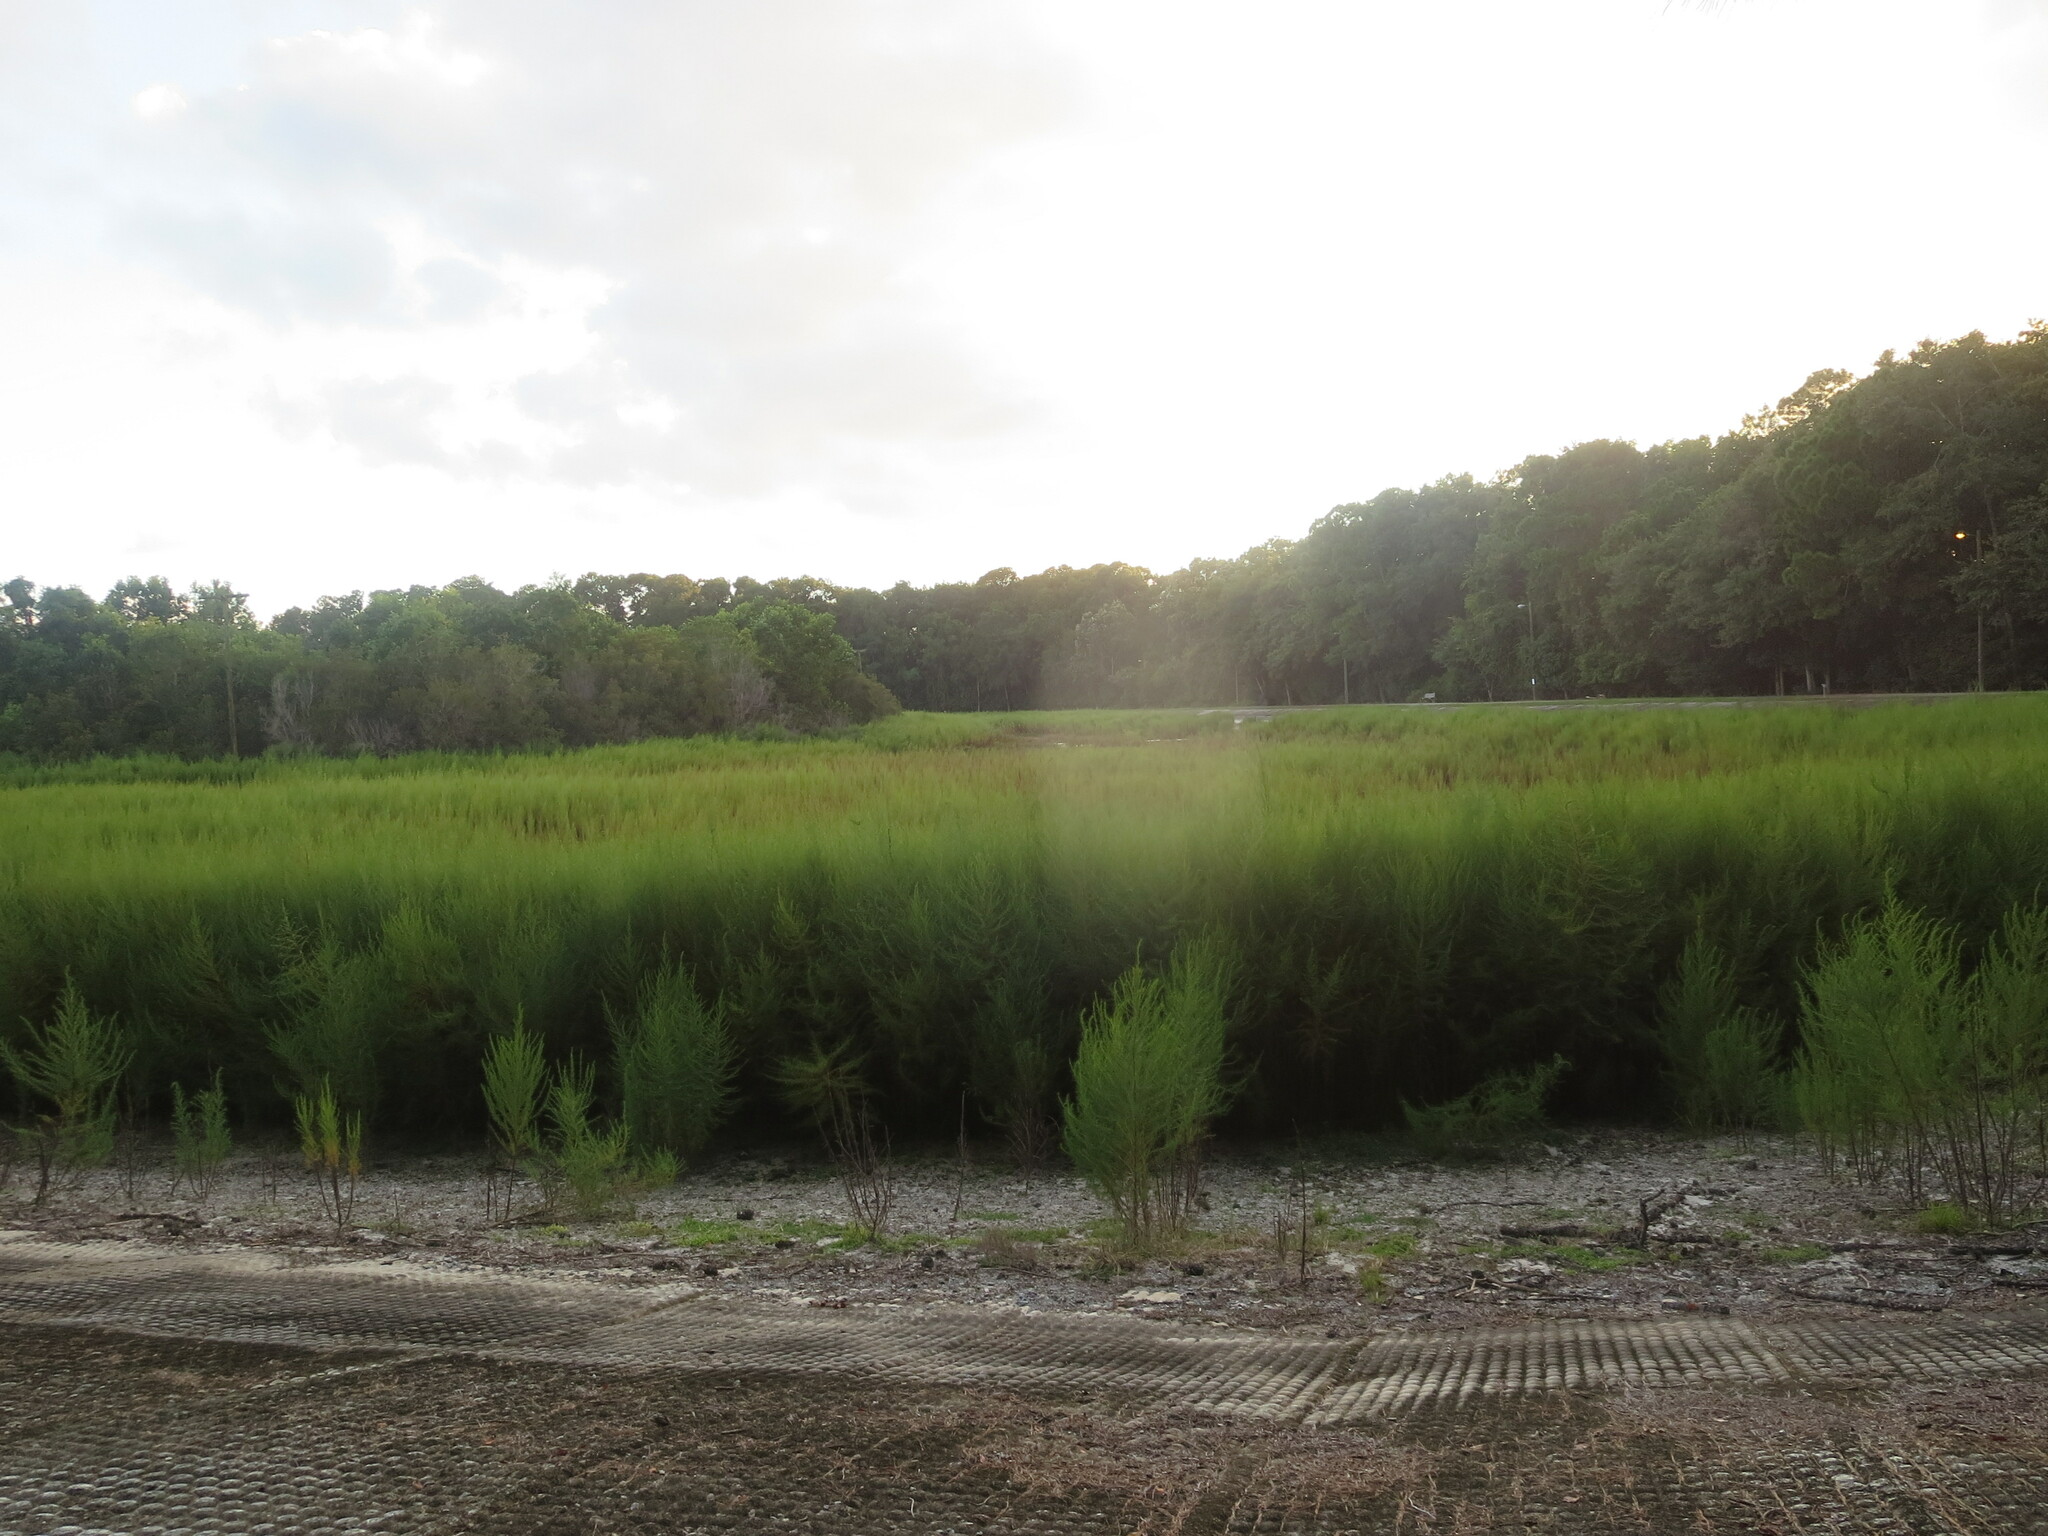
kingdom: Plantae
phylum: Tracheophyta
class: Magnoliopsida
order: Asterales
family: Asteraceae
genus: Eupatorium
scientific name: Eupatorium capillifolium
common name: Dog-fennel
